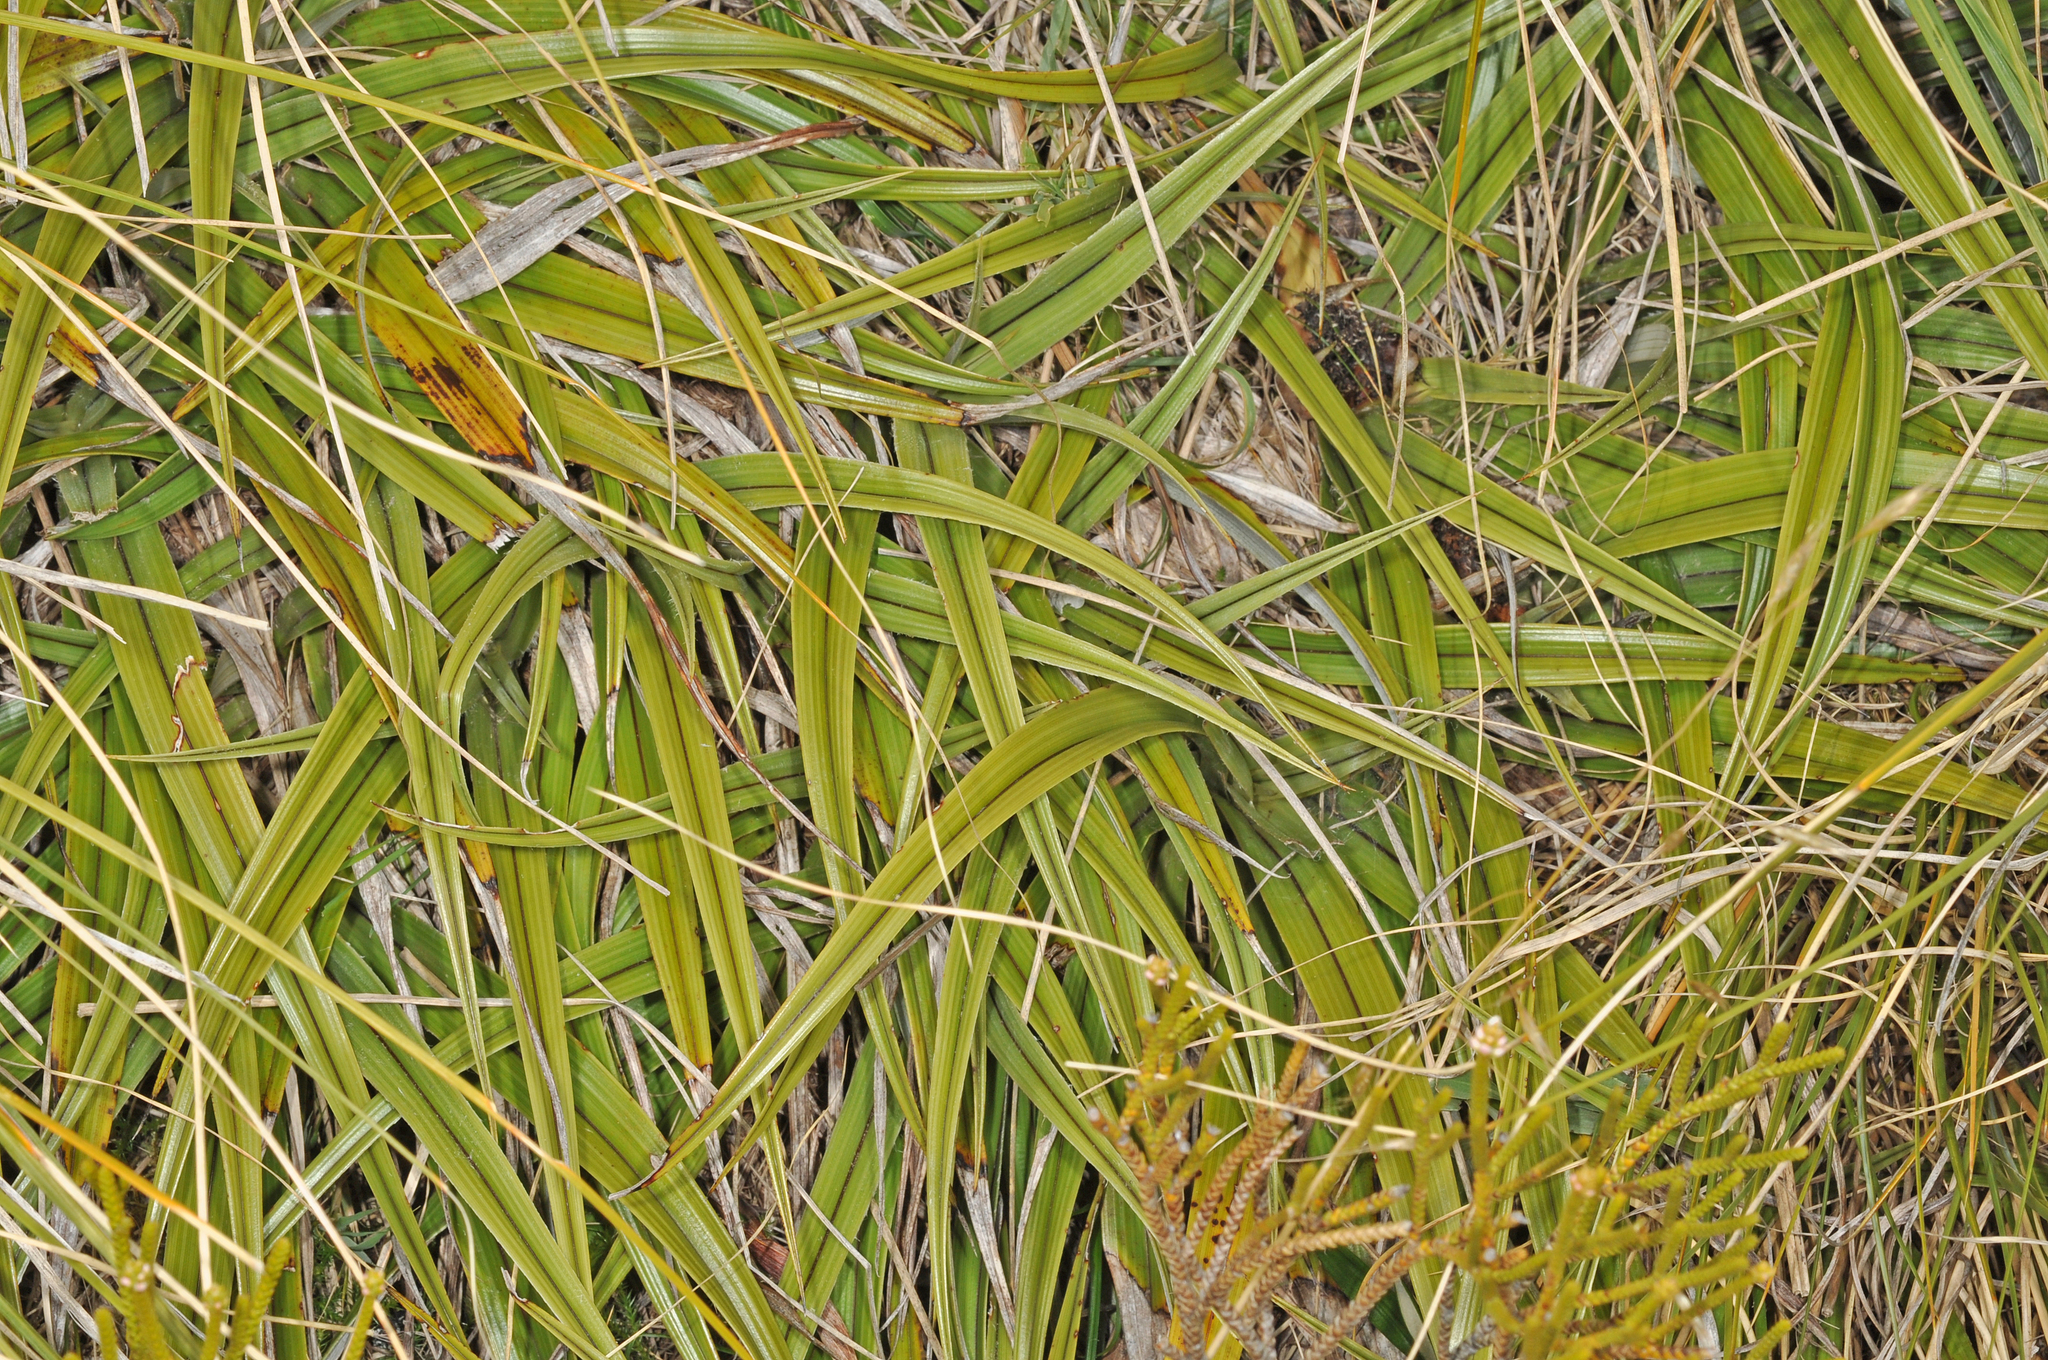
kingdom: Plantae
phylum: Tracheophyta
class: Liliopsida
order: Asparagales
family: Asteliaceae
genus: Astelia
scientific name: Astelia petriei
